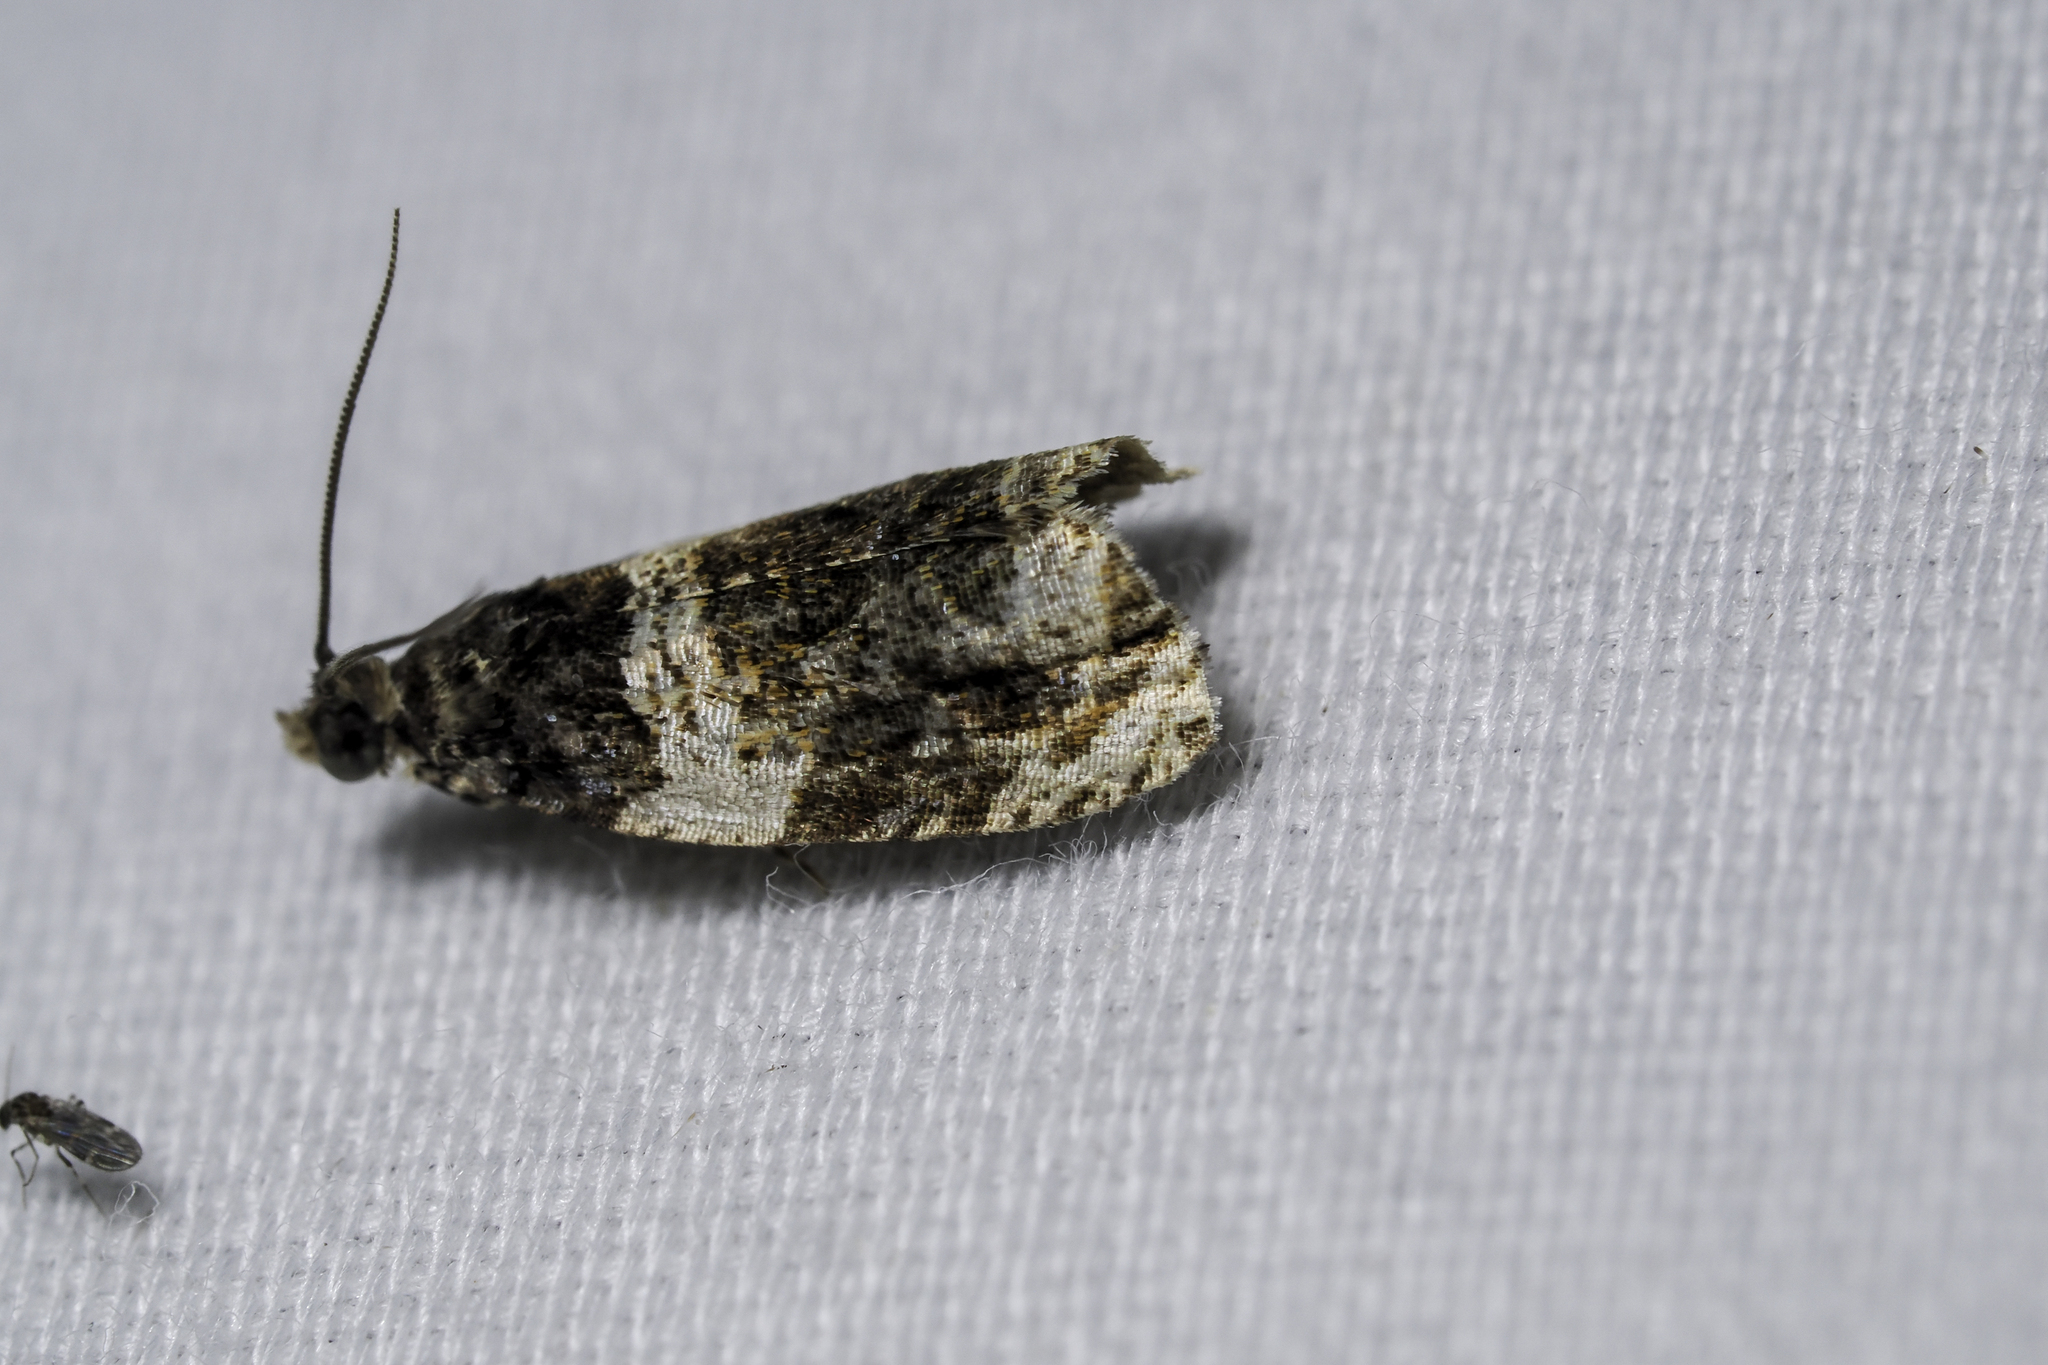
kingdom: Animalia
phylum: Arthropoda
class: Insecta
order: Lepidoptera
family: Tortricidae
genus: Olethreutes
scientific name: Olethreutes fasciatana
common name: Banded olethreutes moth
